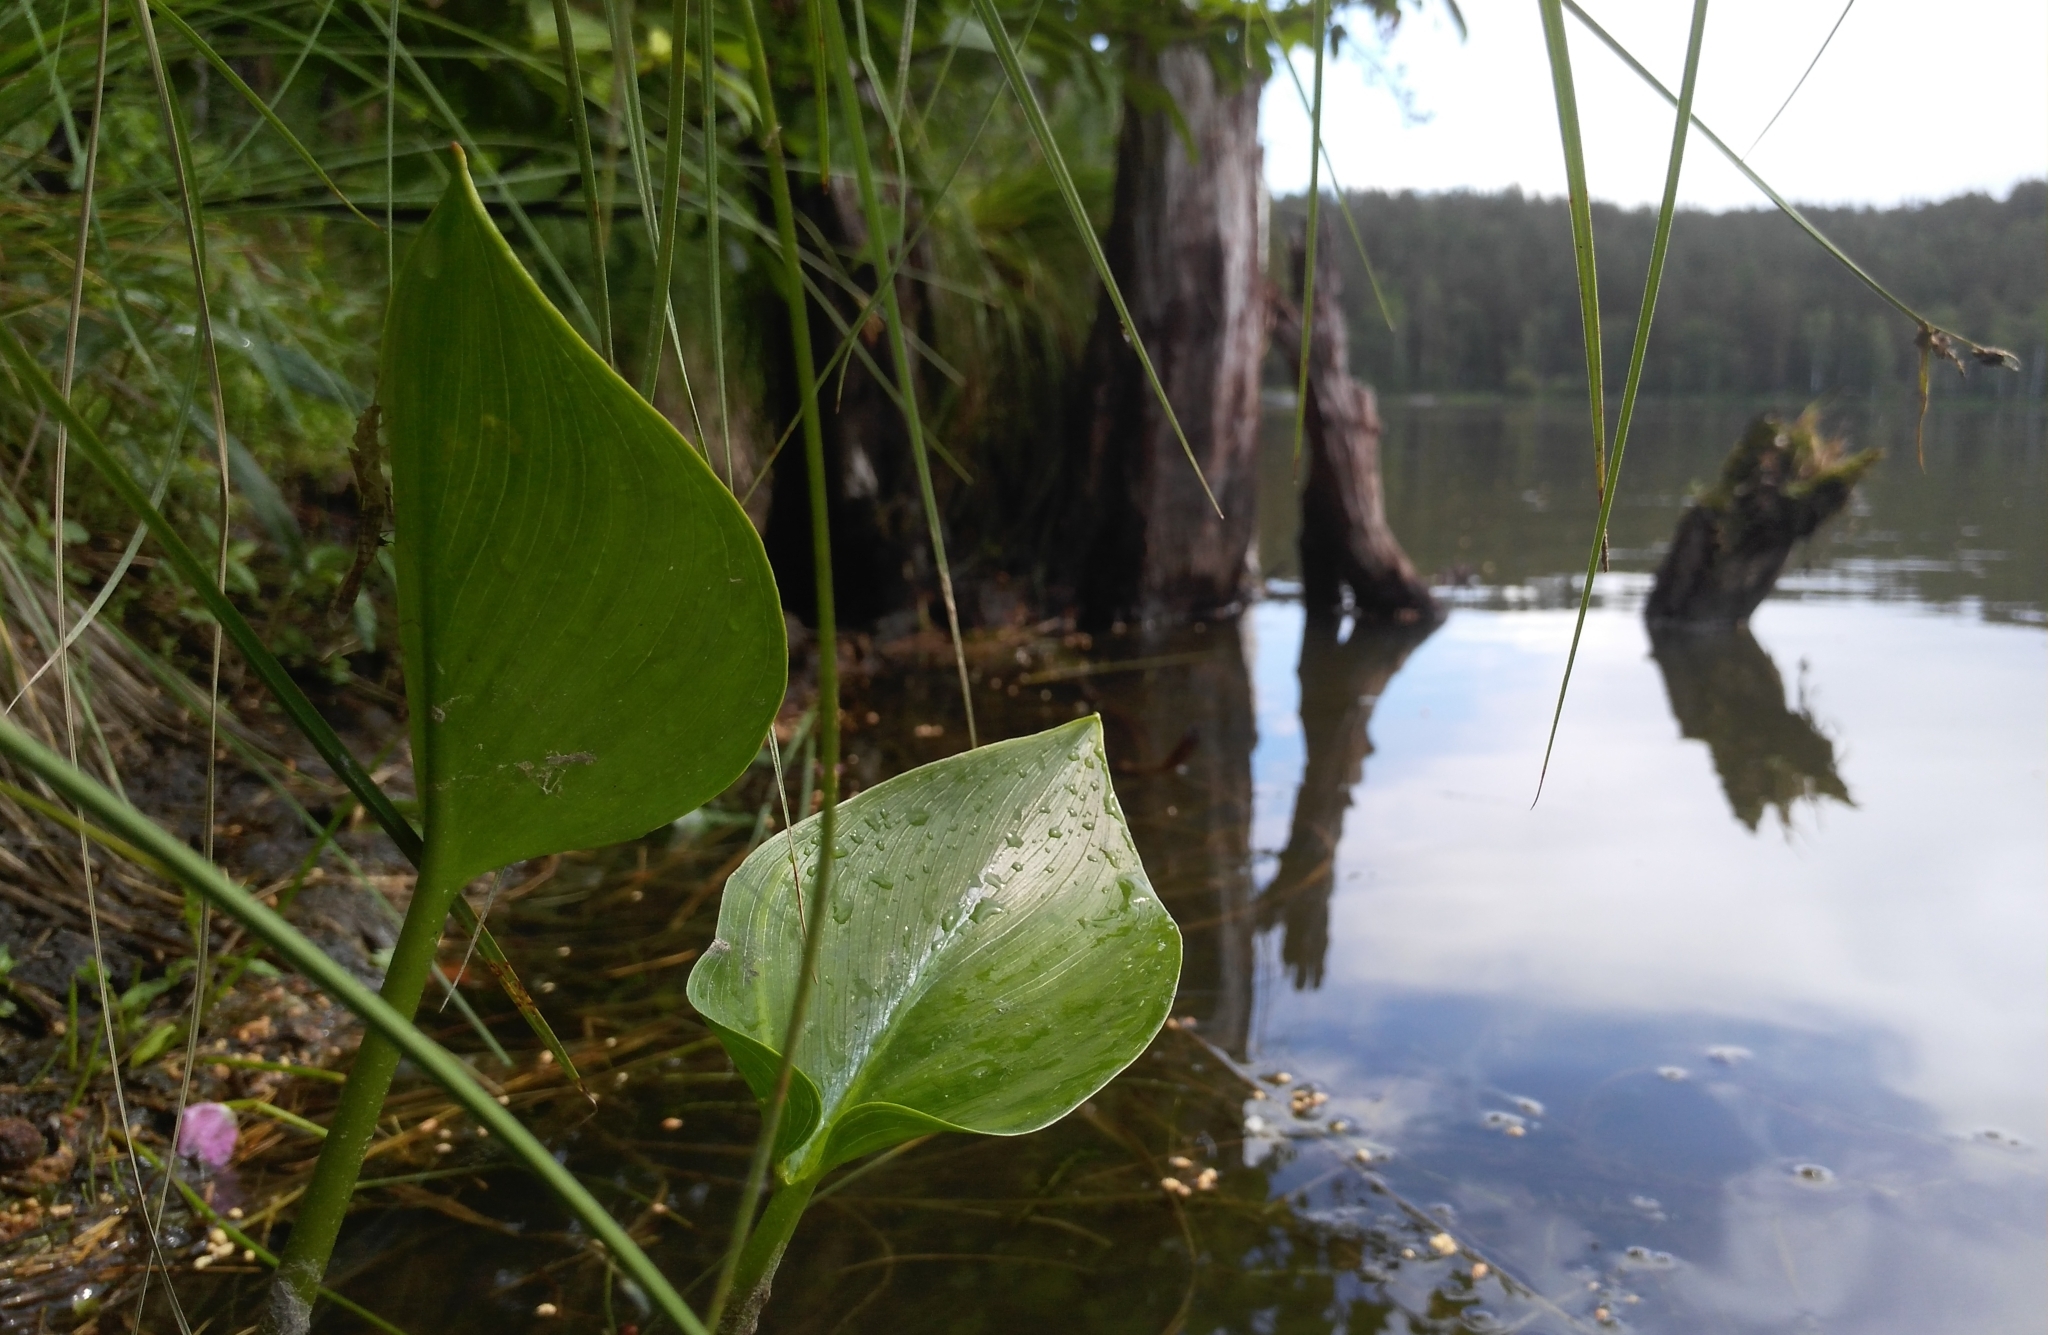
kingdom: Plantae
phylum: Tracheophyta
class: Liliopsida
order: Alismatales
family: Araceae
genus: Calla
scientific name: Calla palustris
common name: Bog arum
